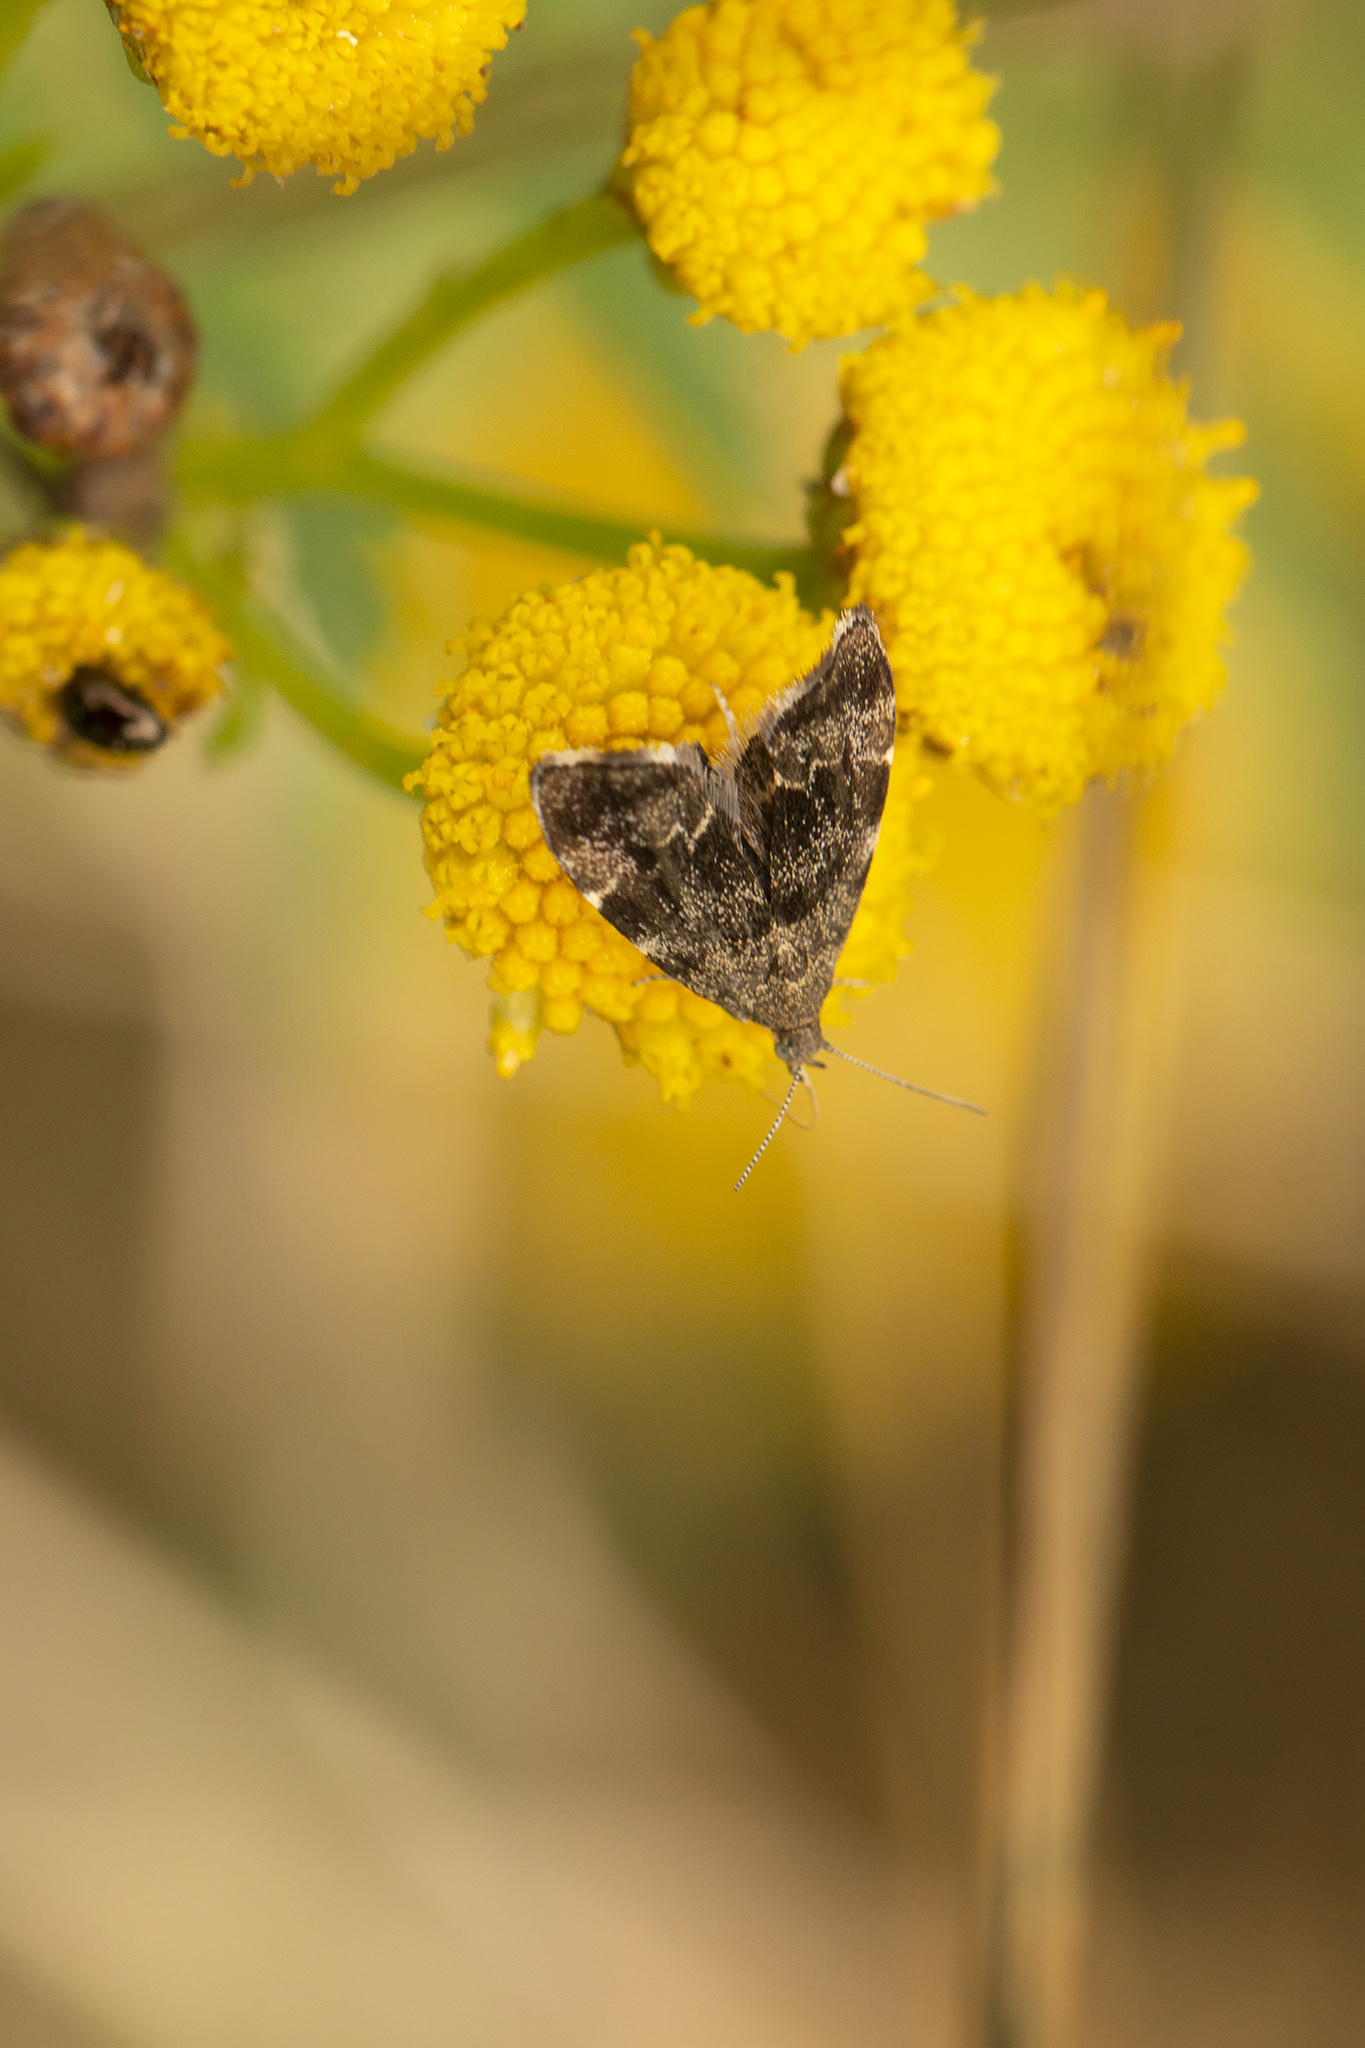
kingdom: Animalia
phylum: Arthropoda
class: Insecta
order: Lepidoptera
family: Choreutidae
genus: Anthophila
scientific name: Anthophila fabriciana
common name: Nettle-tap
